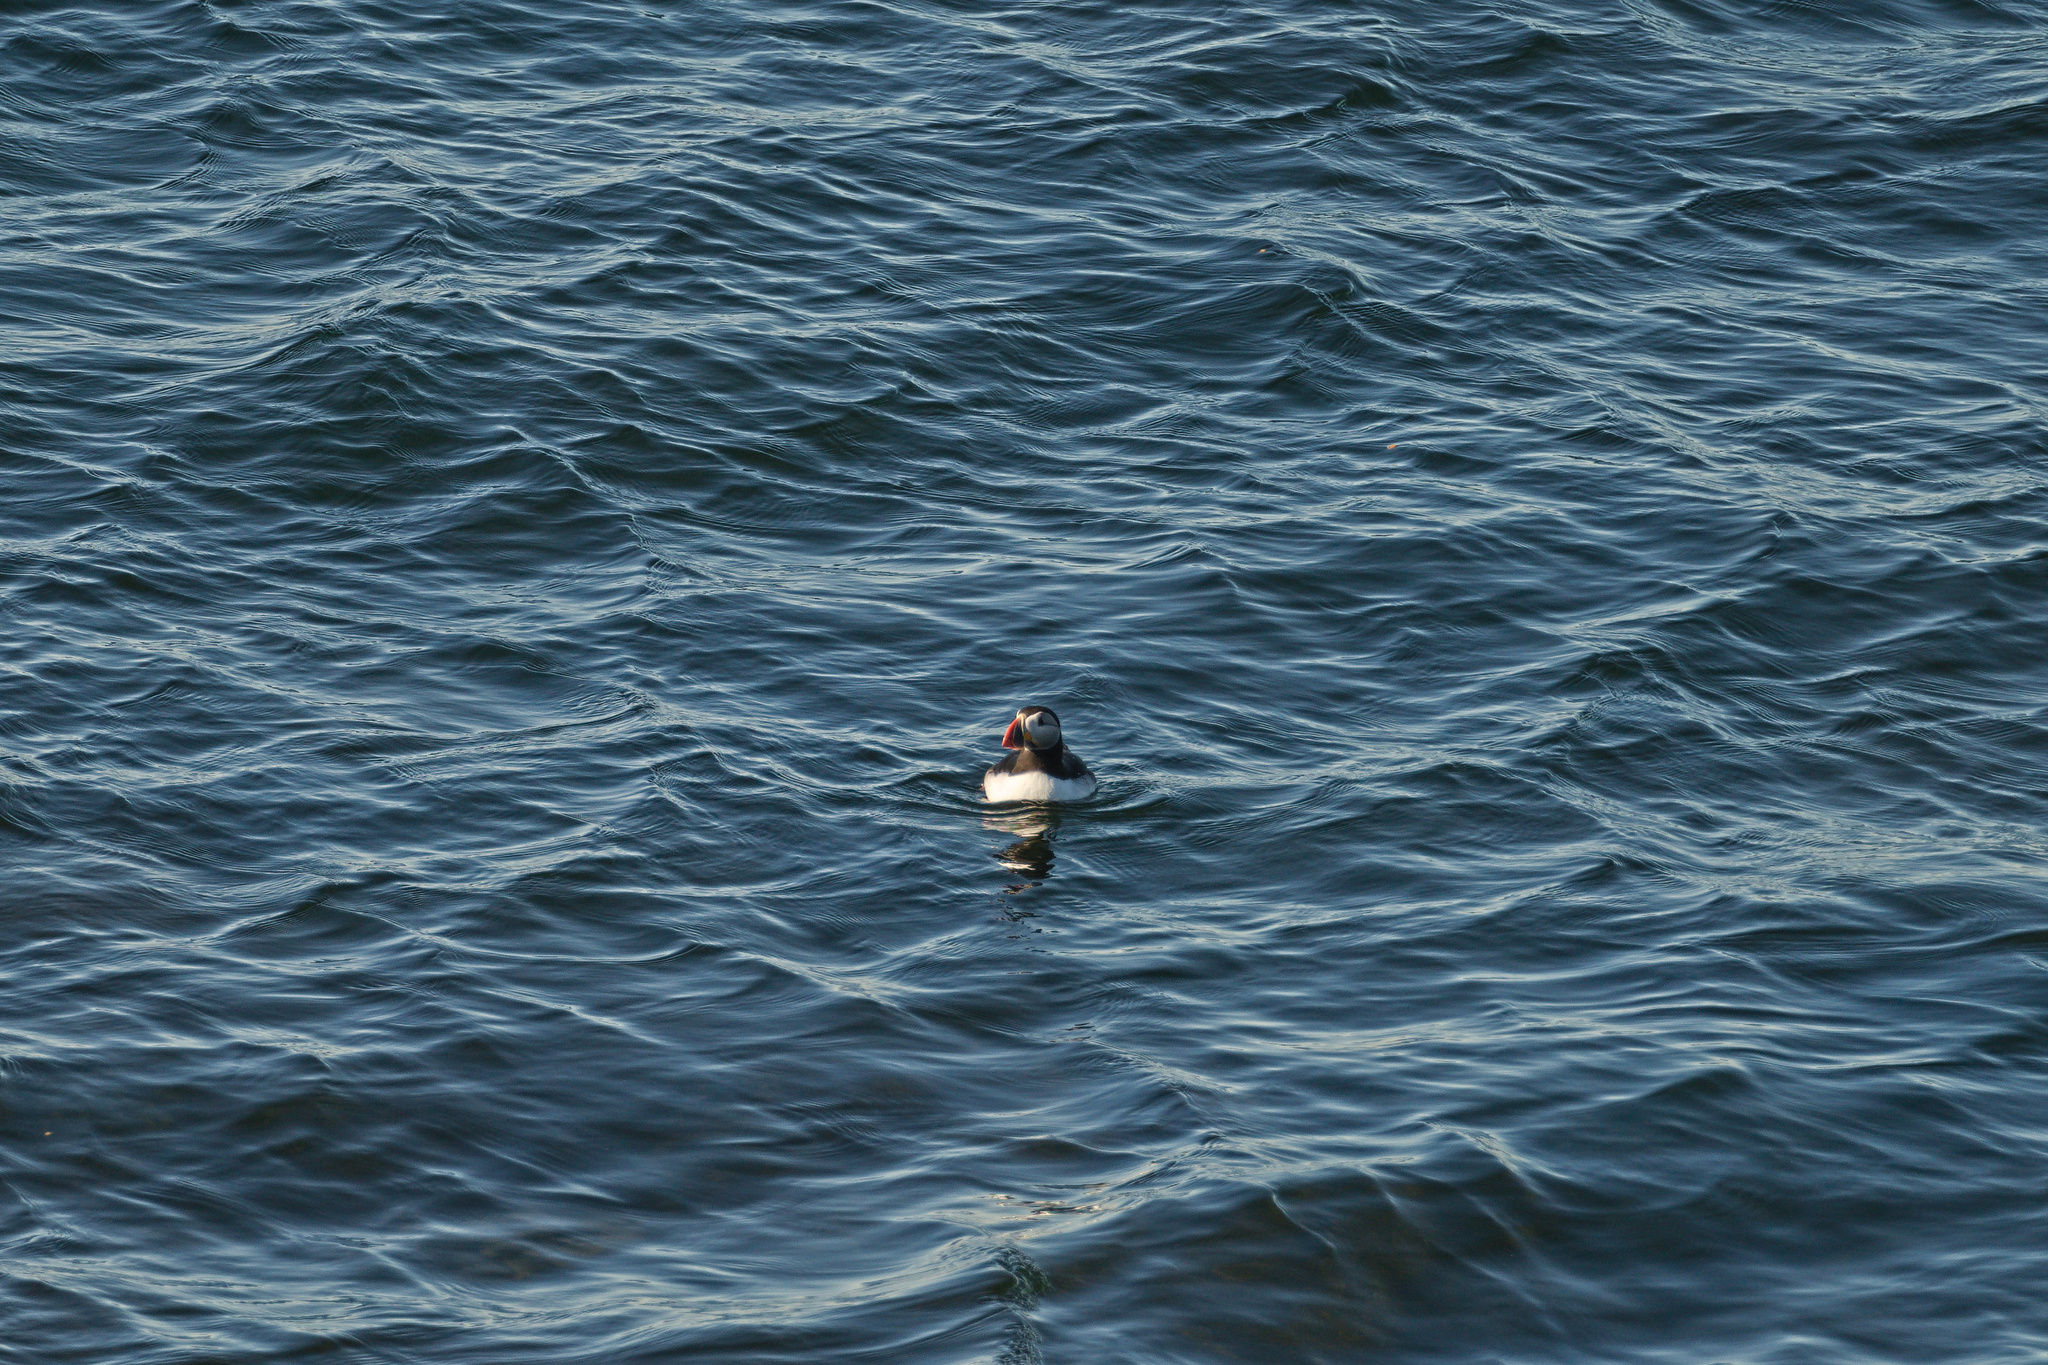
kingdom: Animalia
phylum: Chordata
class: Aves
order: Charadriiformes
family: Alcidae
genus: Fratercula
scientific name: Fratercula arctica
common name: Atlantic puffin
